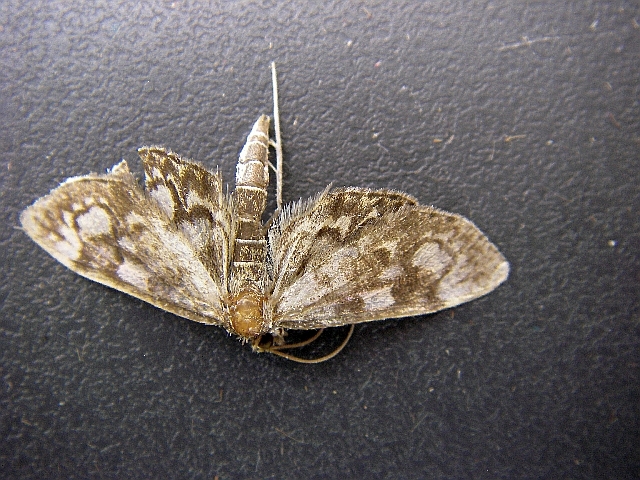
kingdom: Animalia
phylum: Arthropoda
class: Insecta
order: Lepidoptera
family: Crambidae
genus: Anania
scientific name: Anania coronata
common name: Elder pearl
